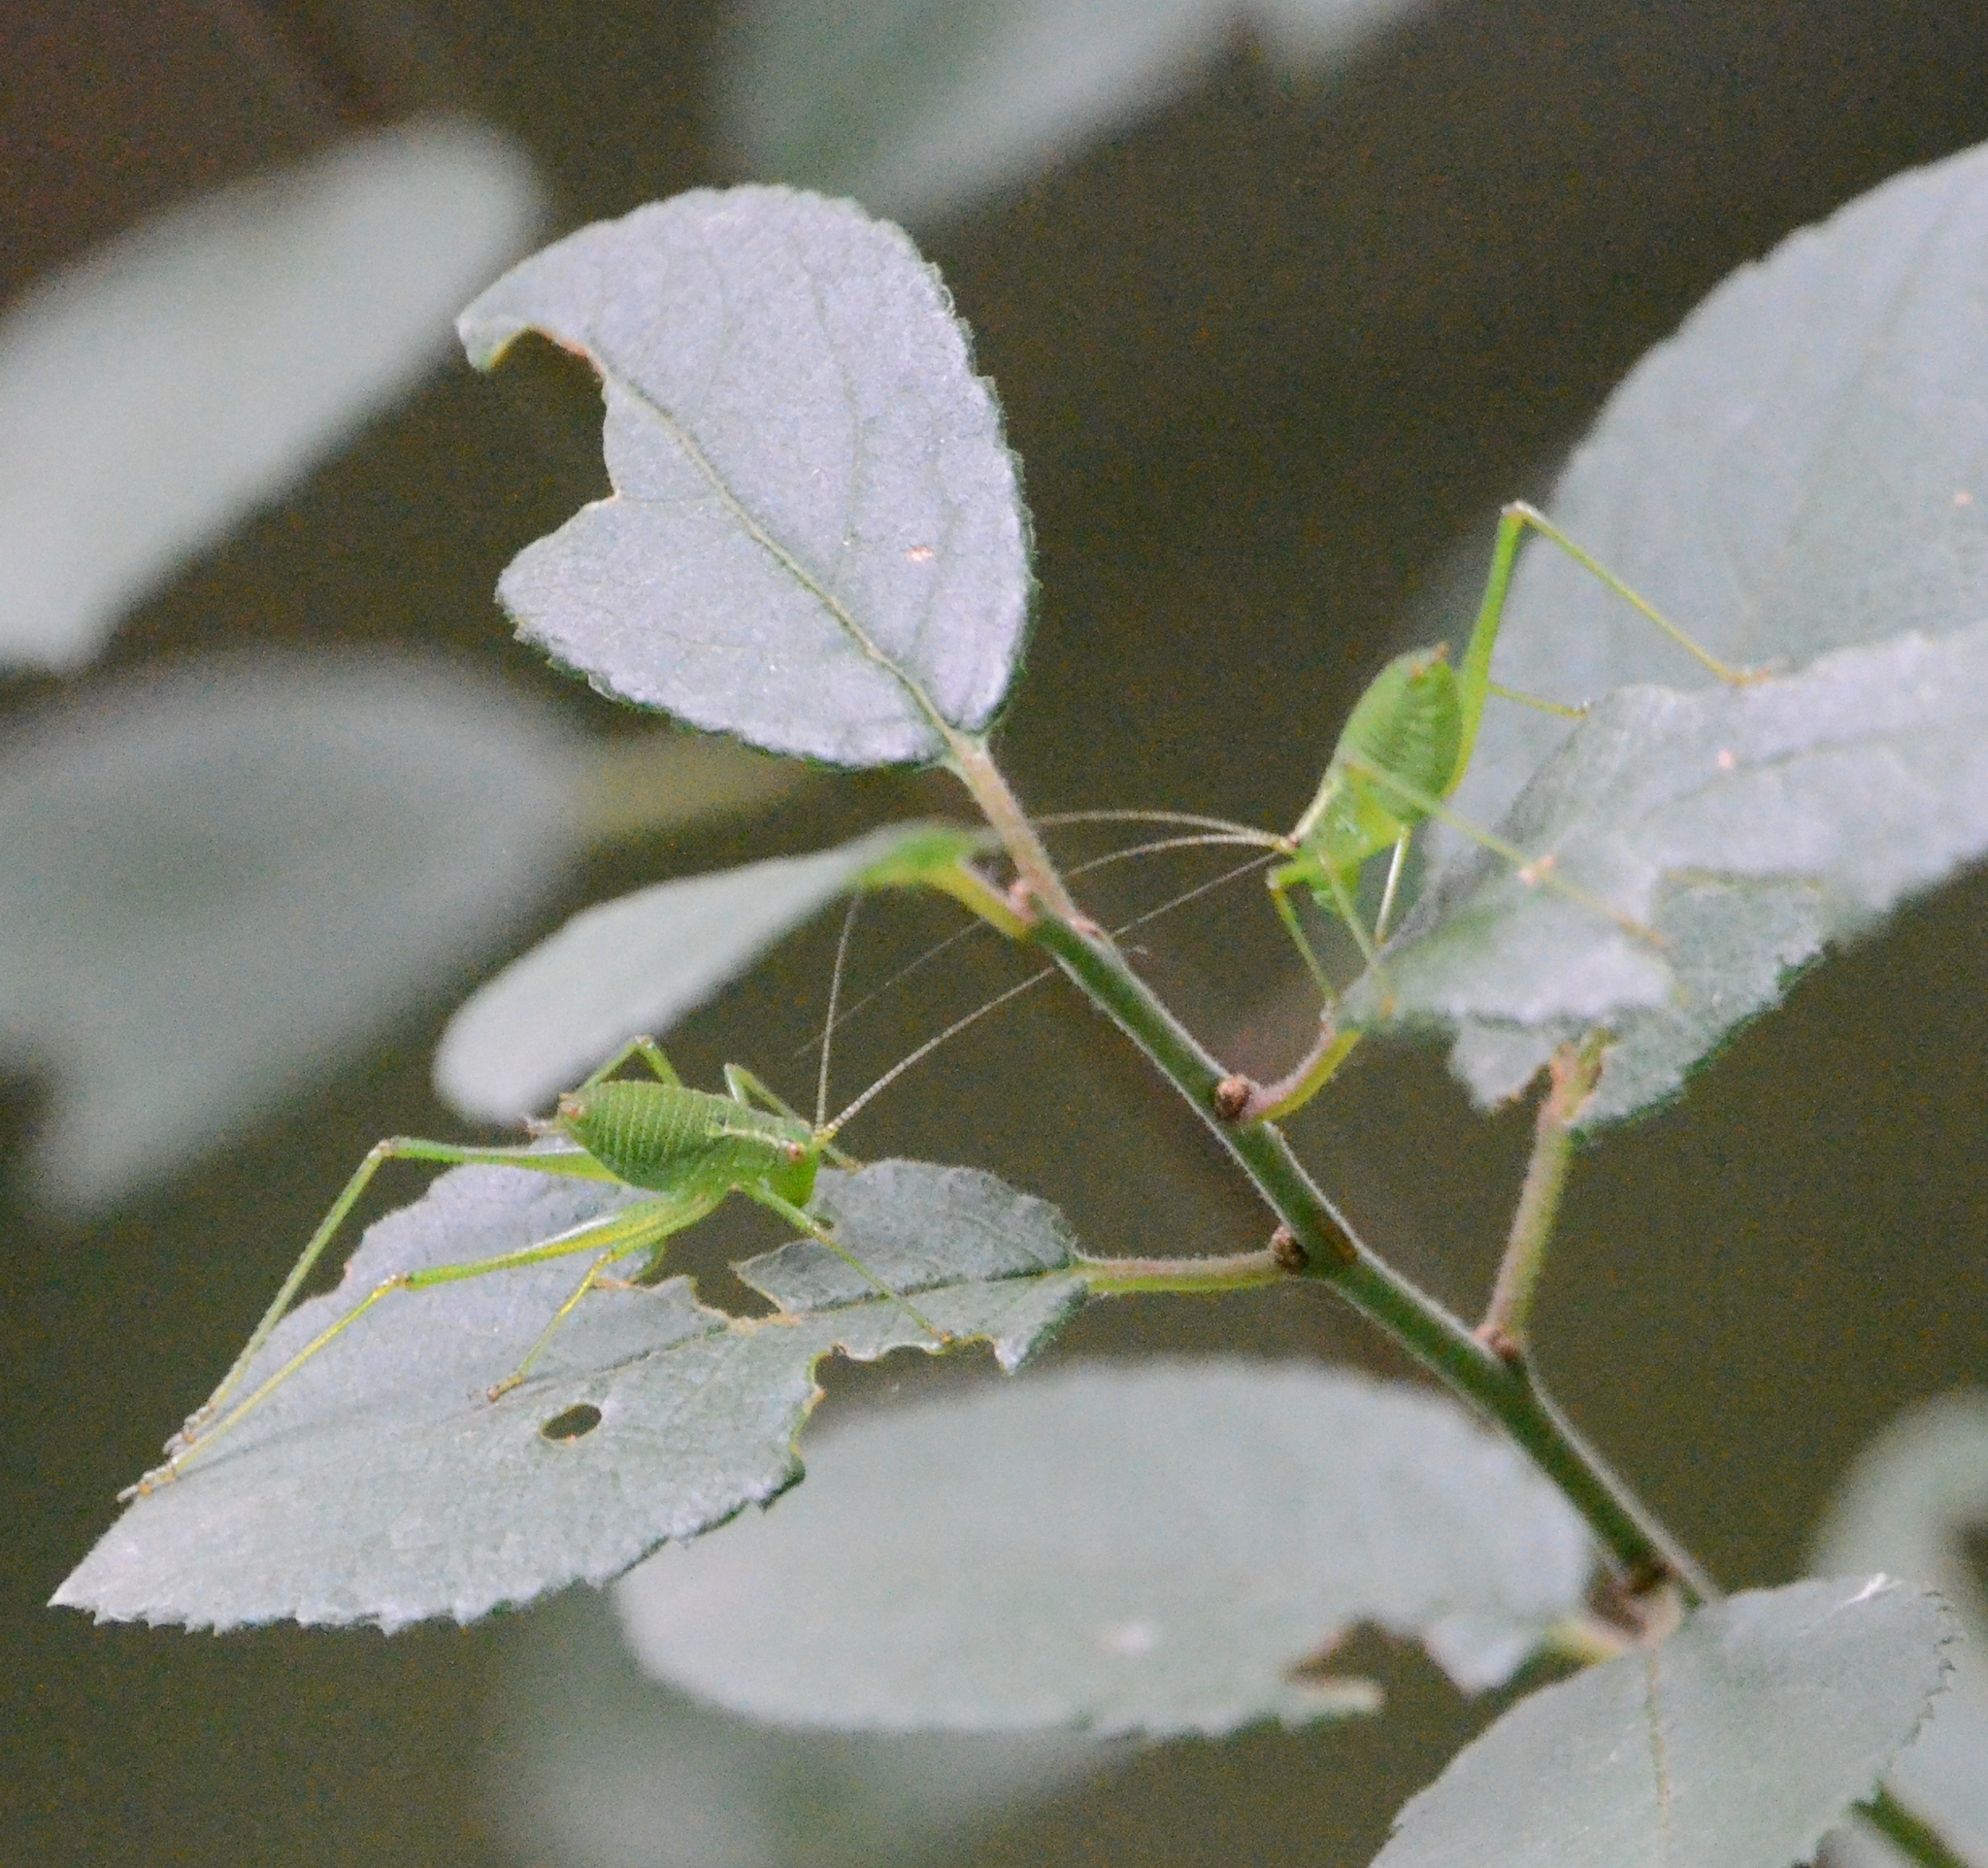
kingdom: Animalia
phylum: Arthropoda
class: Insecta
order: Orthoptera
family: Tettigoniidae
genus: Leptophyes
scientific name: Leptophyes punctatissima
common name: Speckled bush-cricket
